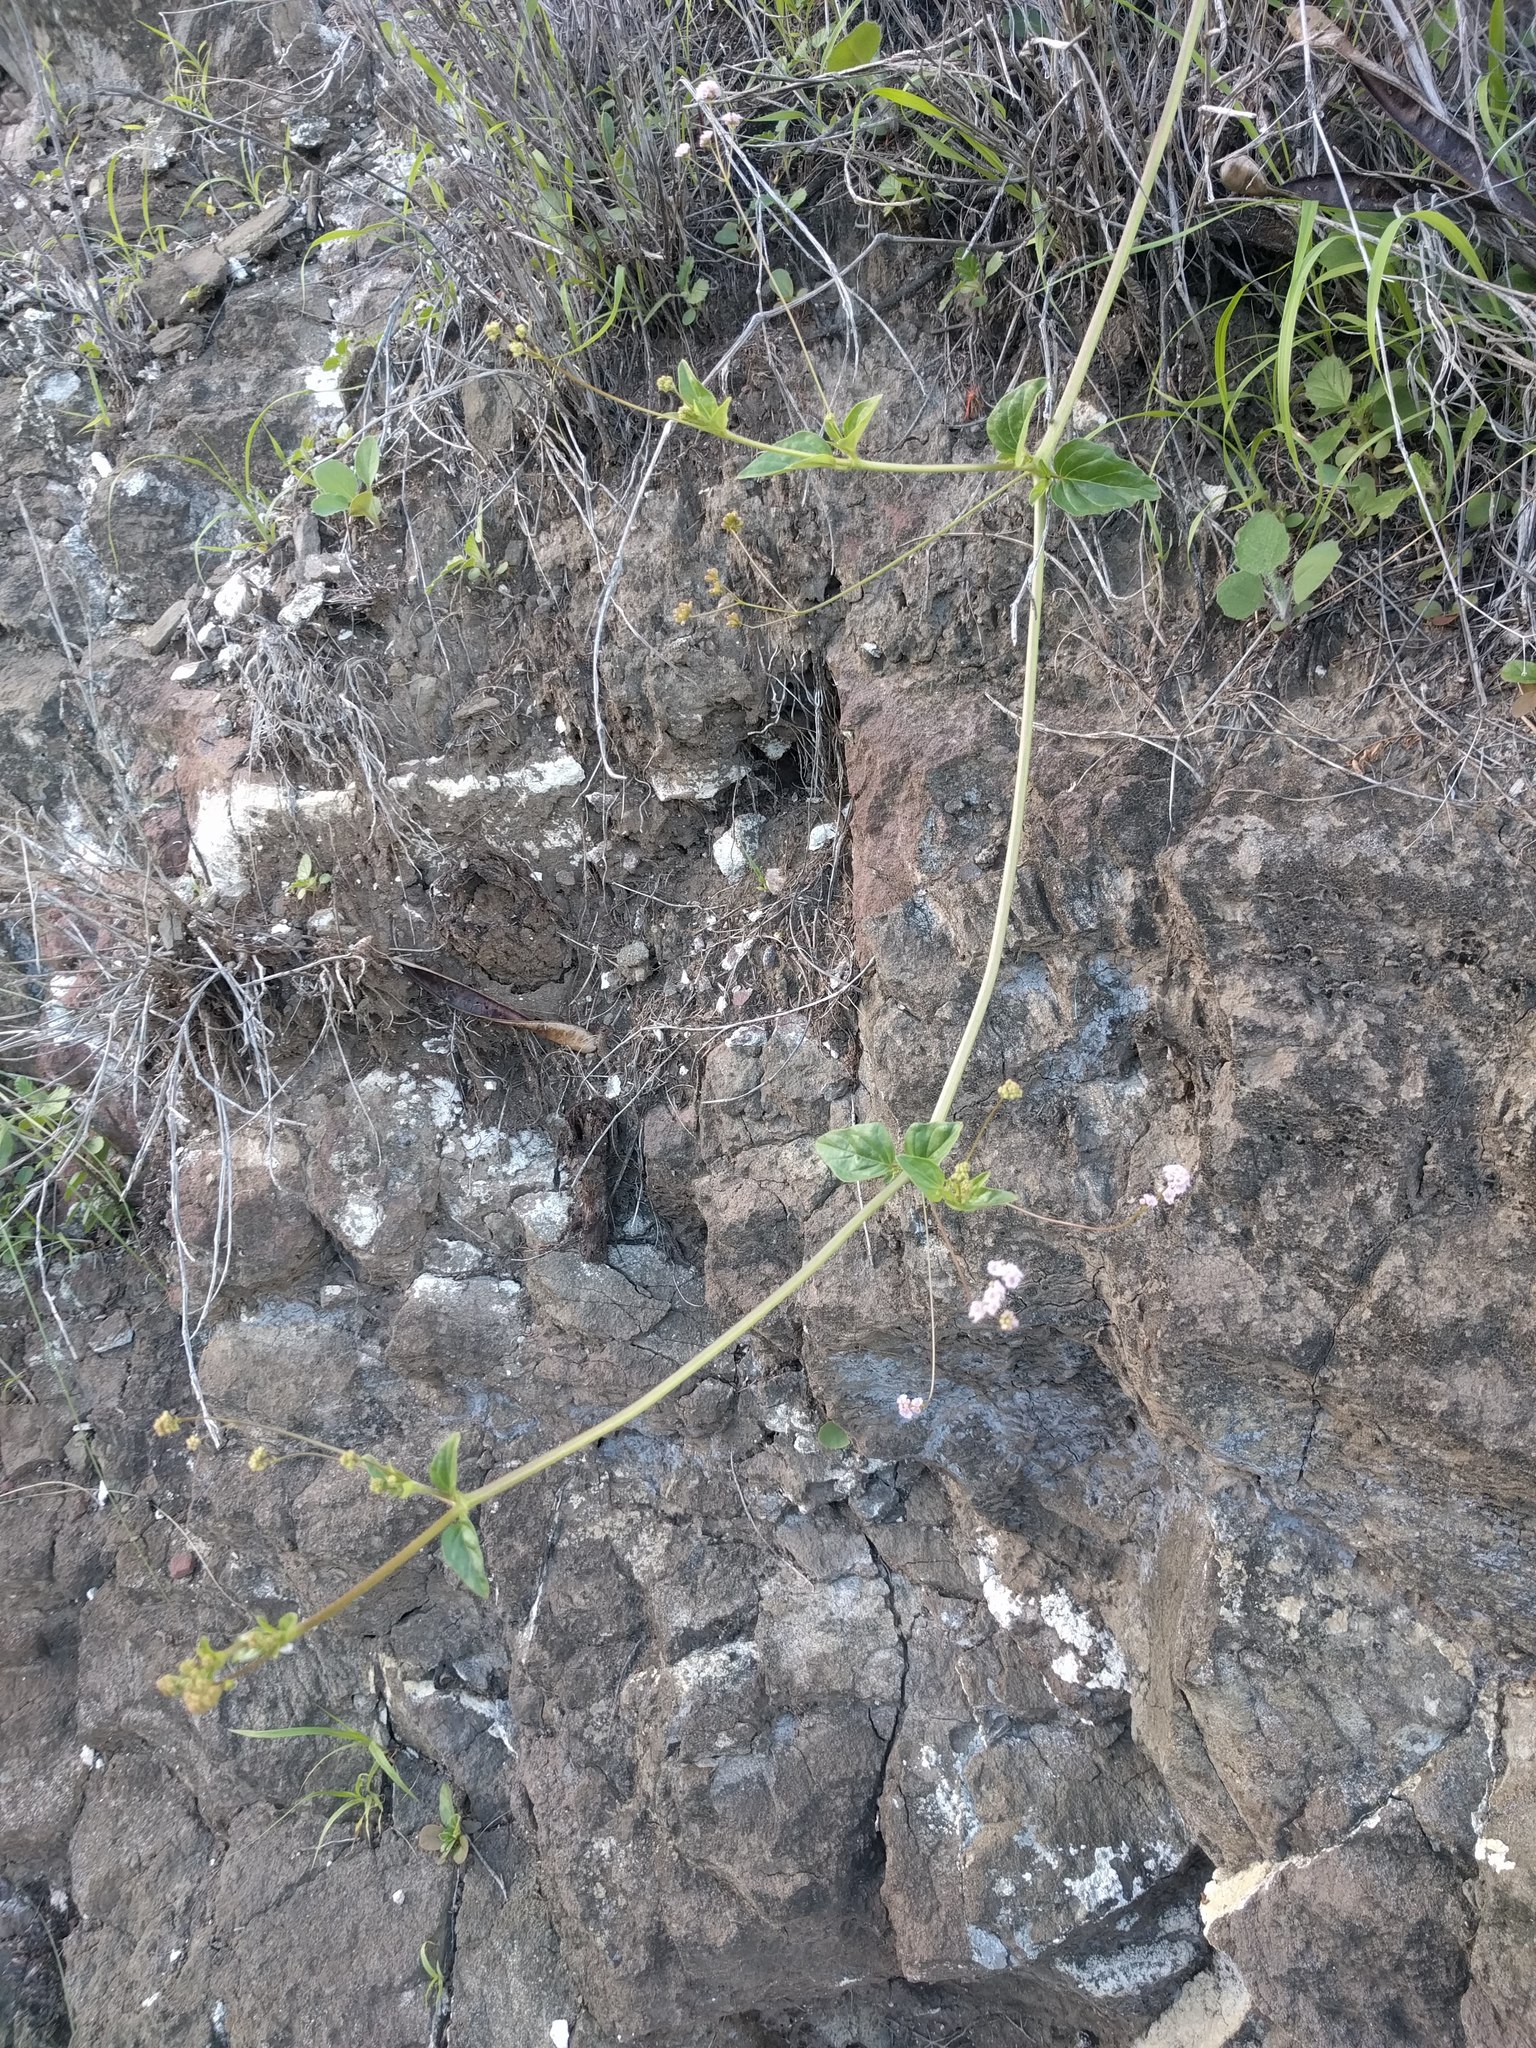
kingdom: Plantae
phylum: Tracheophyta
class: Magnoliopsida
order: Caryophyllales
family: Nyctaginaceae
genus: Boerhavia
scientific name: Boerhavia repens
